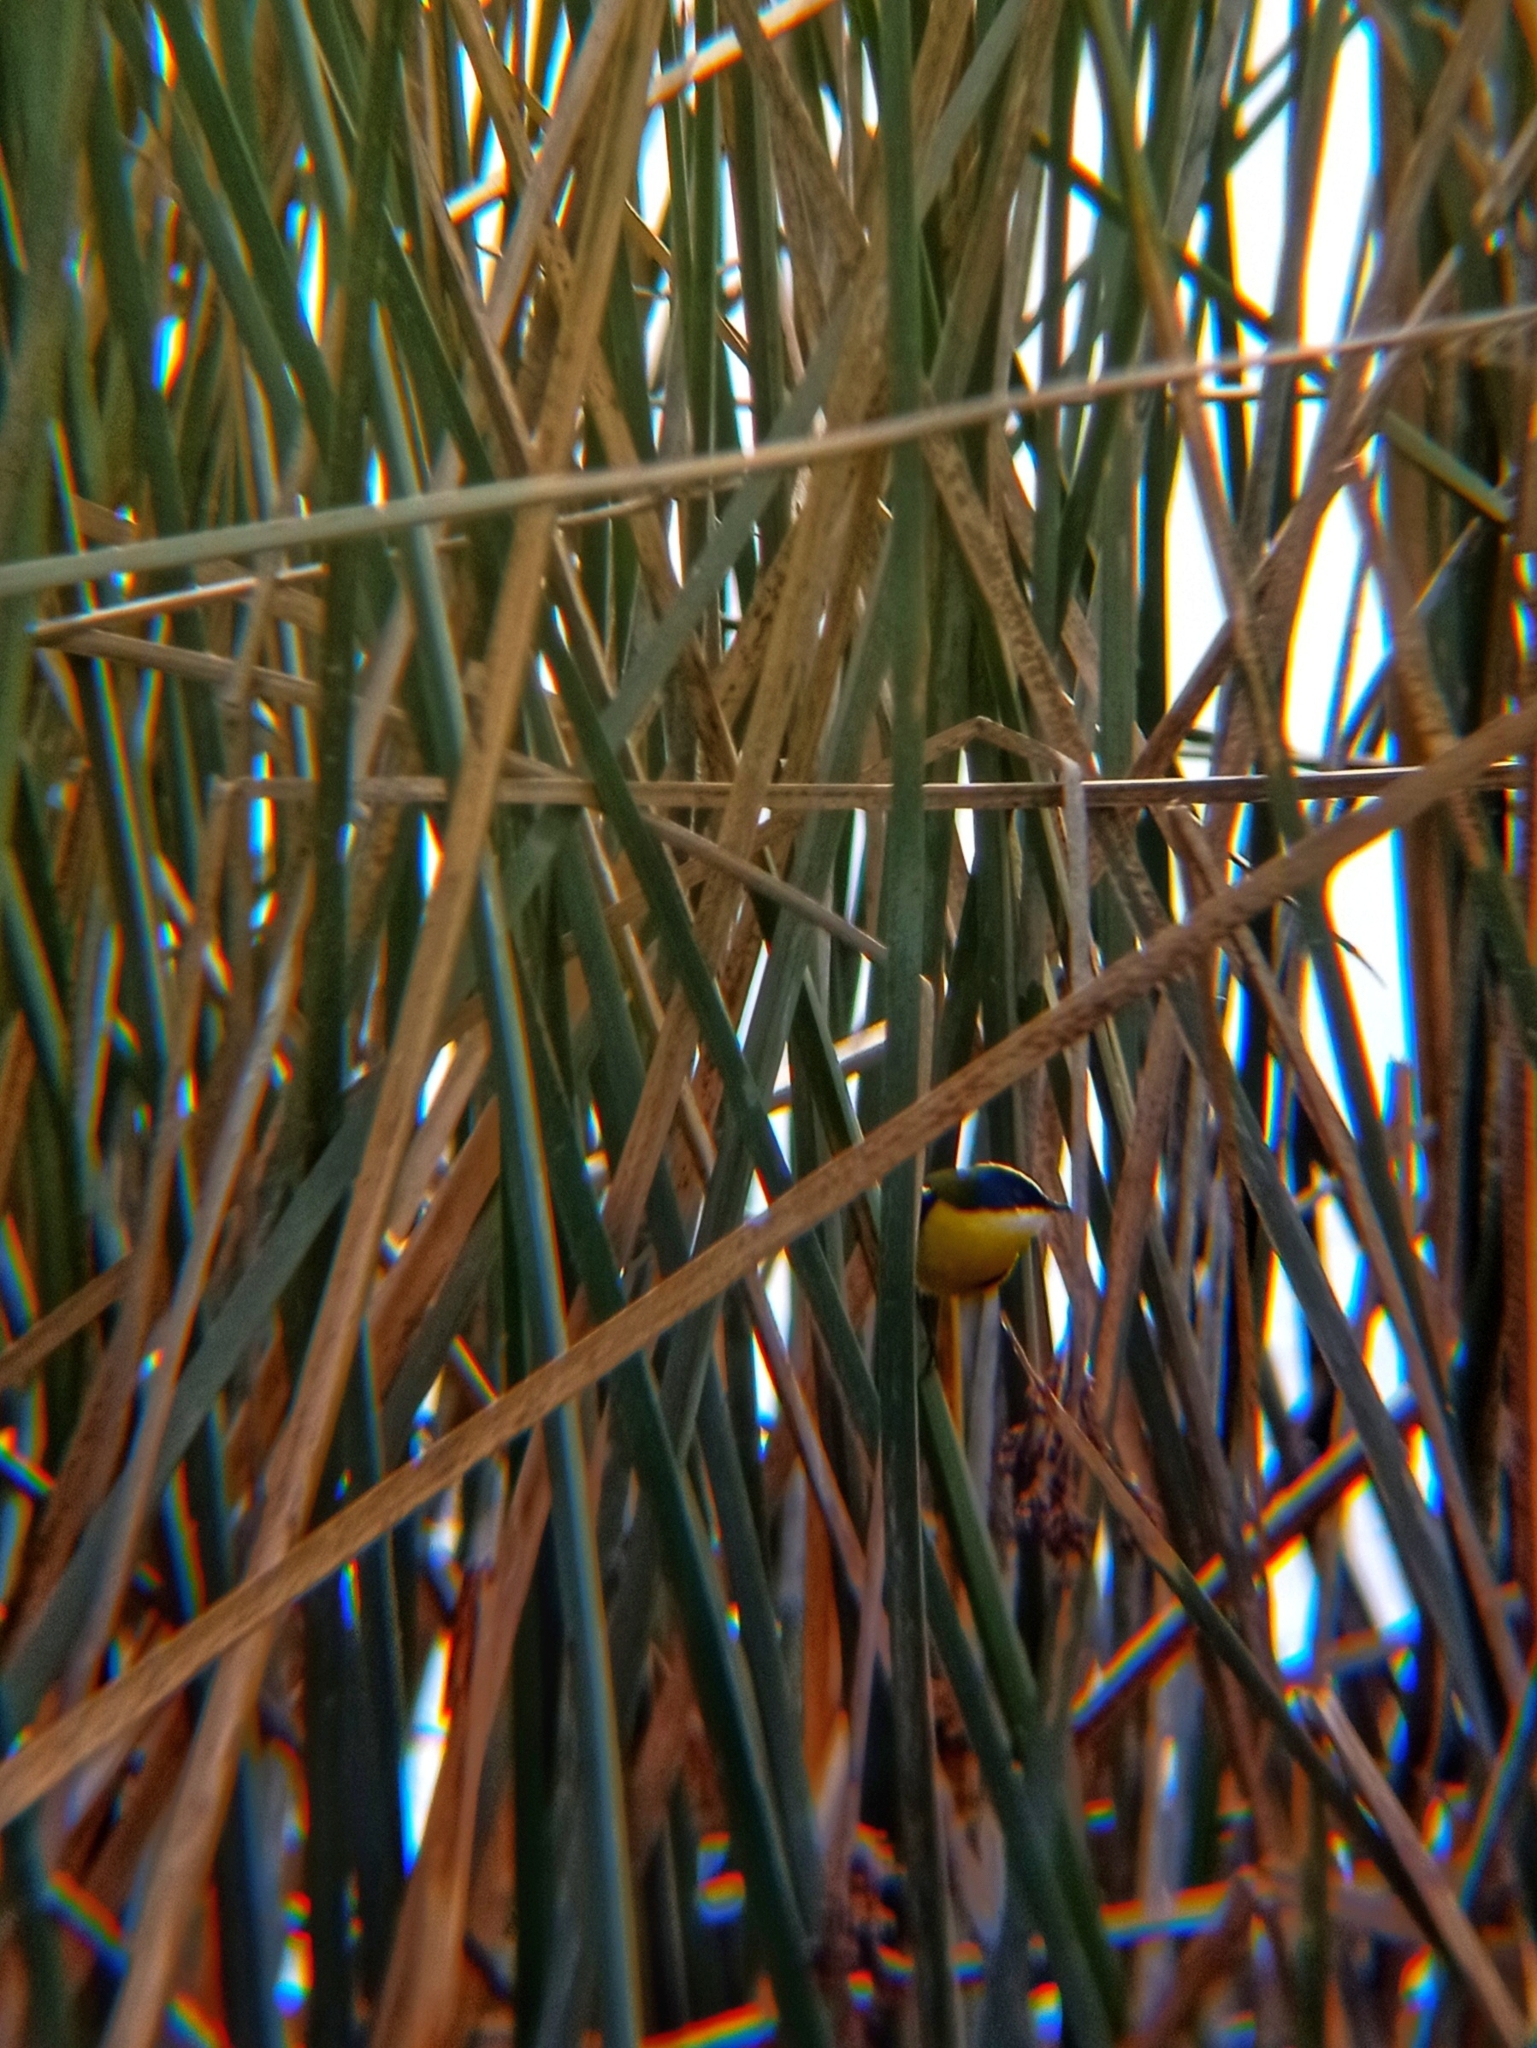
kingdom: Animalia
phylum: Chordata
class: Aves
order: Passeriformes
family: Tyrannidae
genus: Tachuris
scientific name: Tachuris rubrigastra
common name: Many-colored rush tyrant
